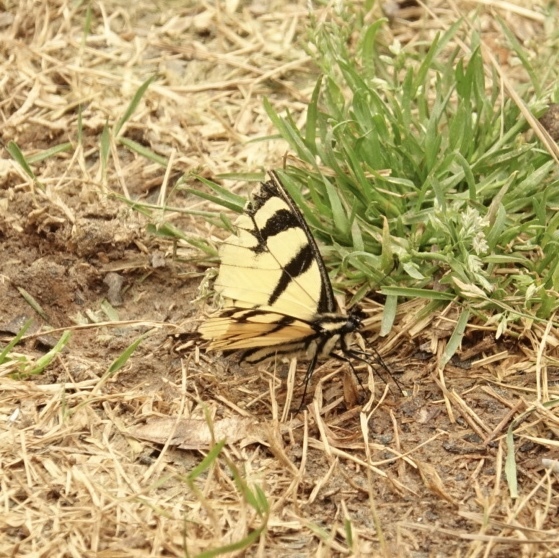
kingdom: Animalia
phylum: Arthropoda
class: Insecta
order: Lepidoptera
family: Papilionidae
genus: Papilio
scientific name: Papilio glaucus
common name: Tiger swallowtail
